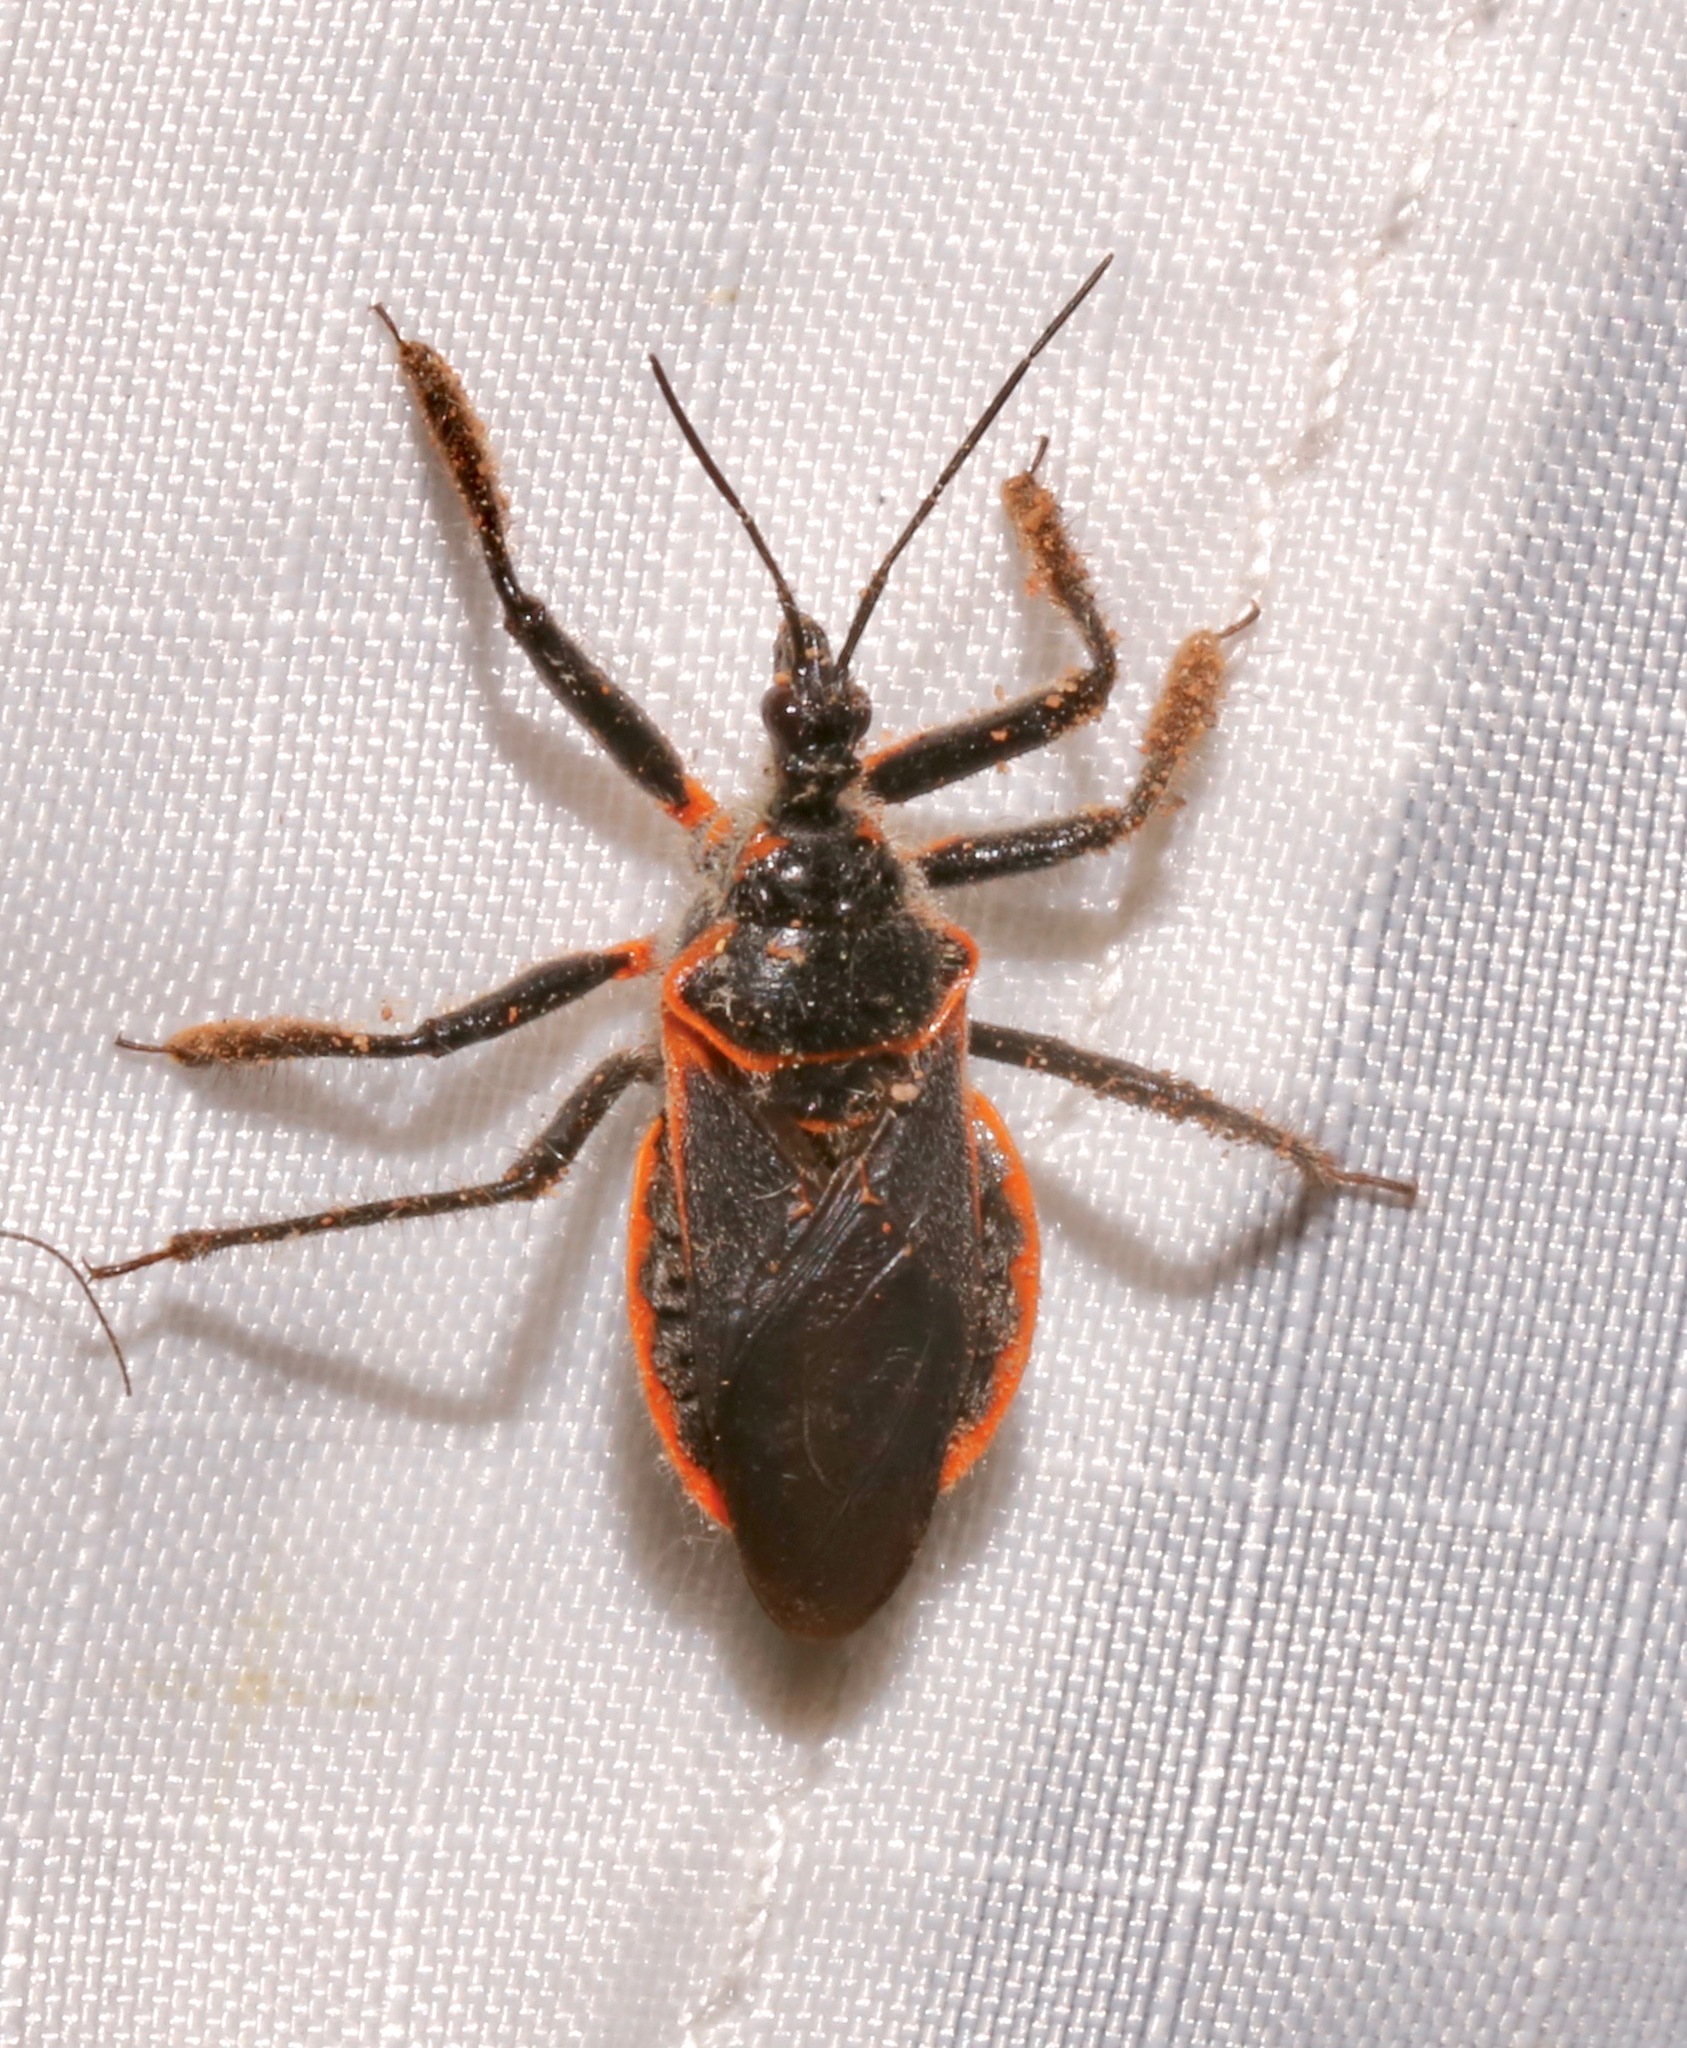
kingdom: Animalia
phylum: Arthropoda
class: Insecta
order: Hemiptera
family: Reduviidae
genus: Apiomerus
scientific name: Apiomerus crassipes
